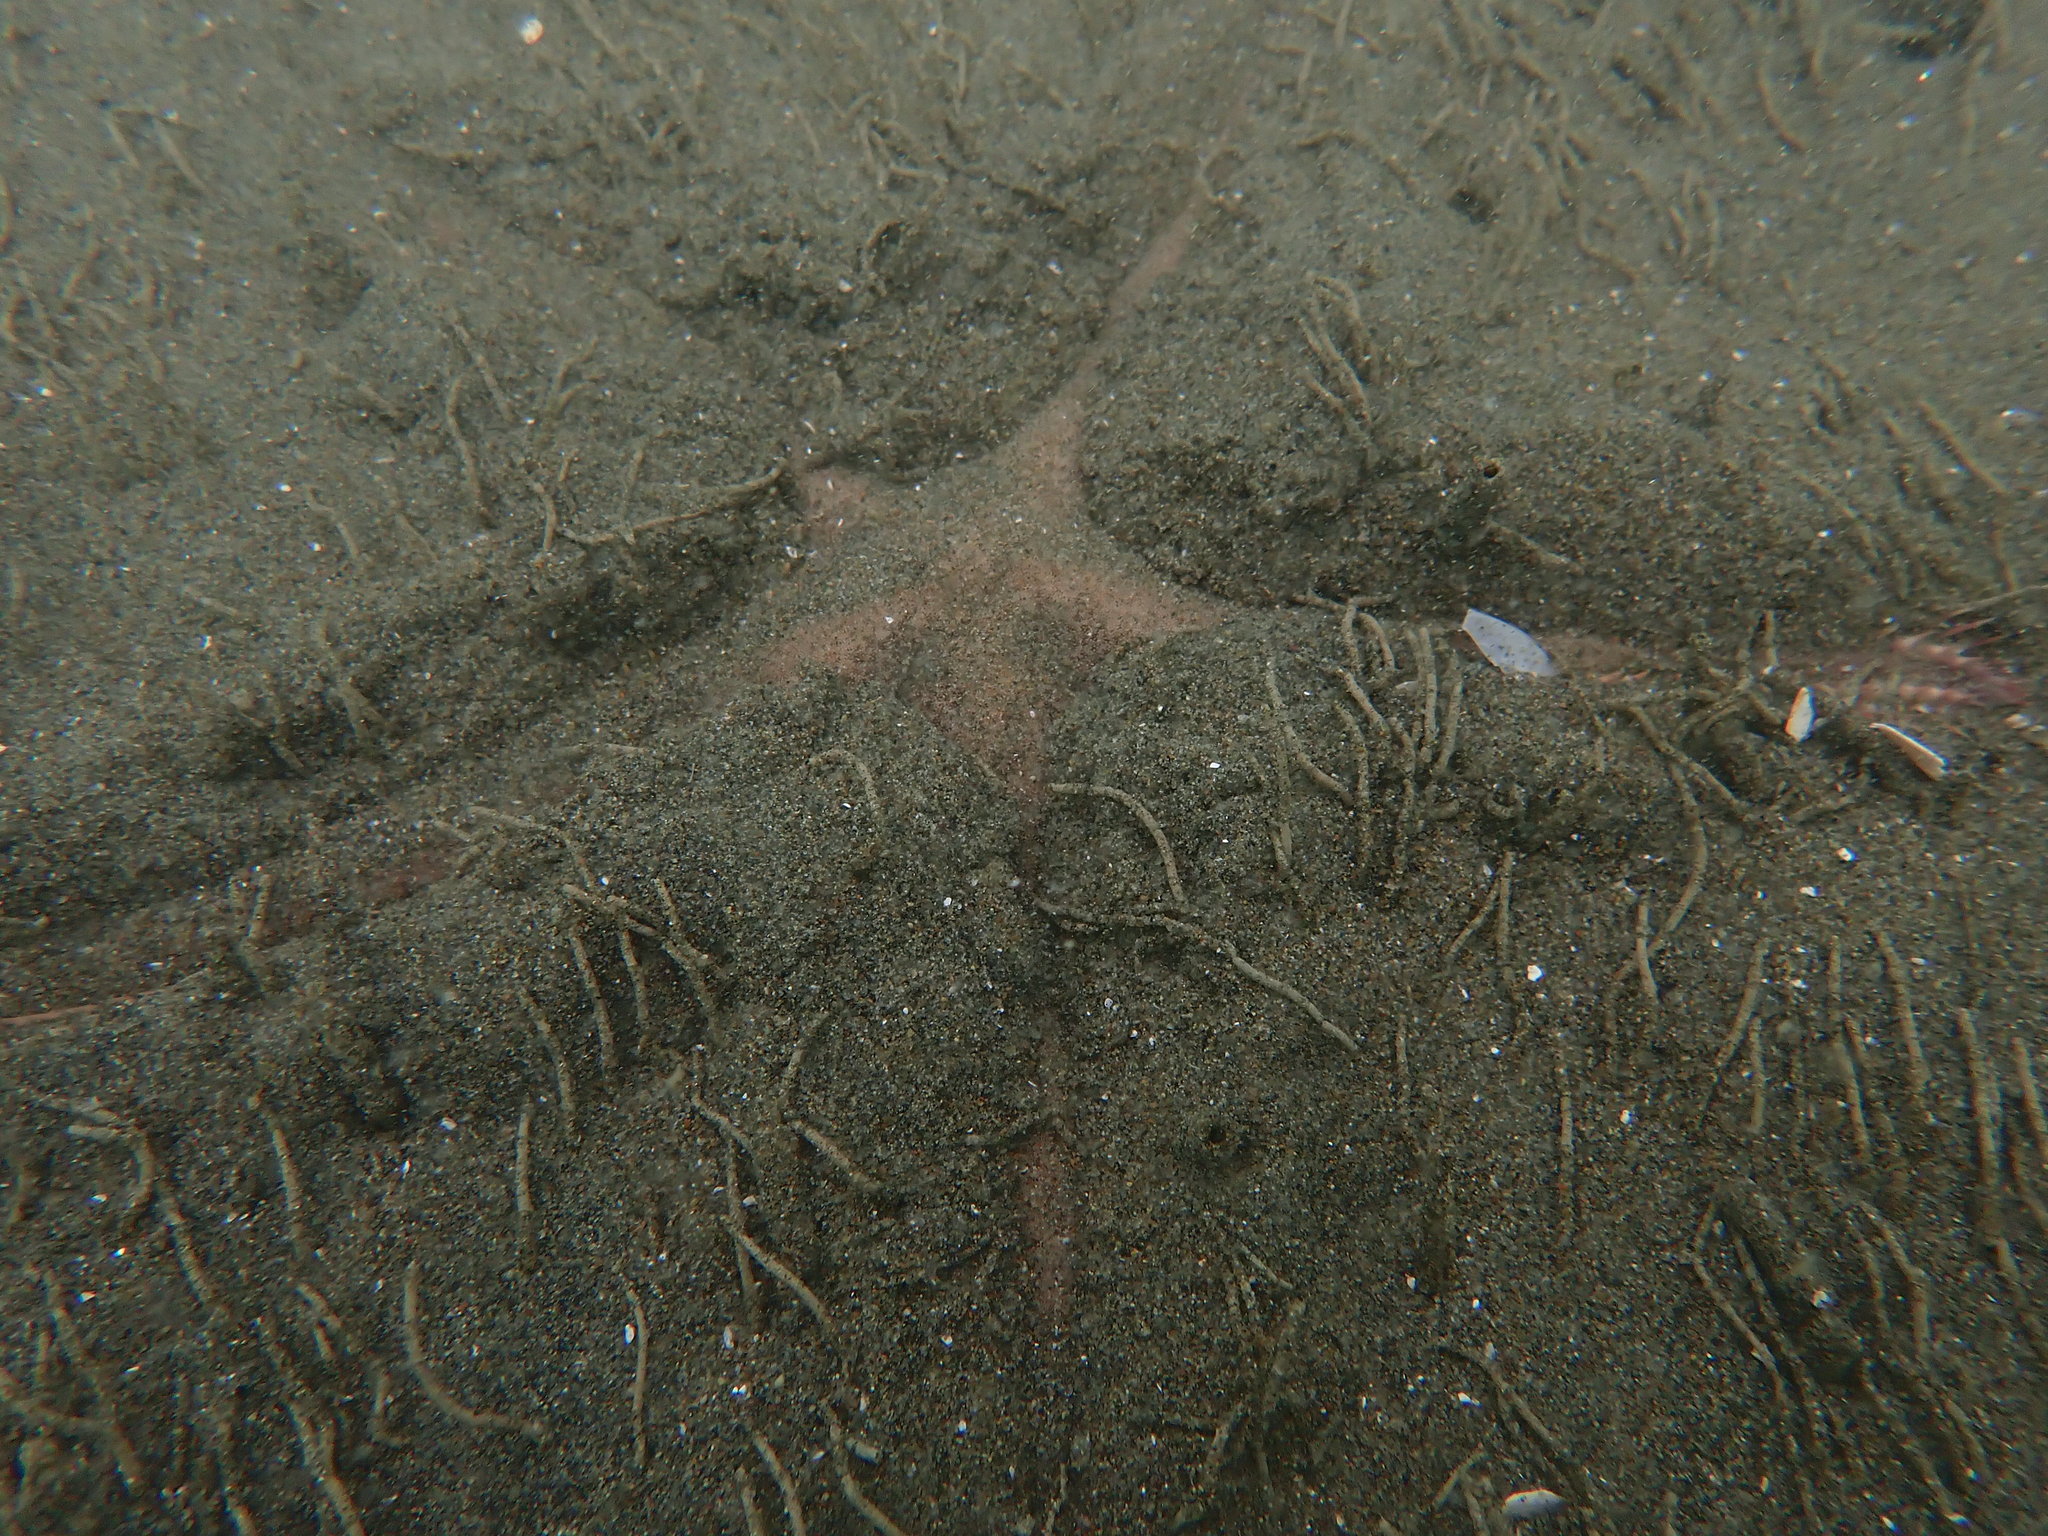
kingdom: Animalia
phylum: Echinodermata
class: Asteroidea
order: Paxillosida
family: Astropectinidae
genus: Astropecten
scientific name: Astropecten polyacanthus
